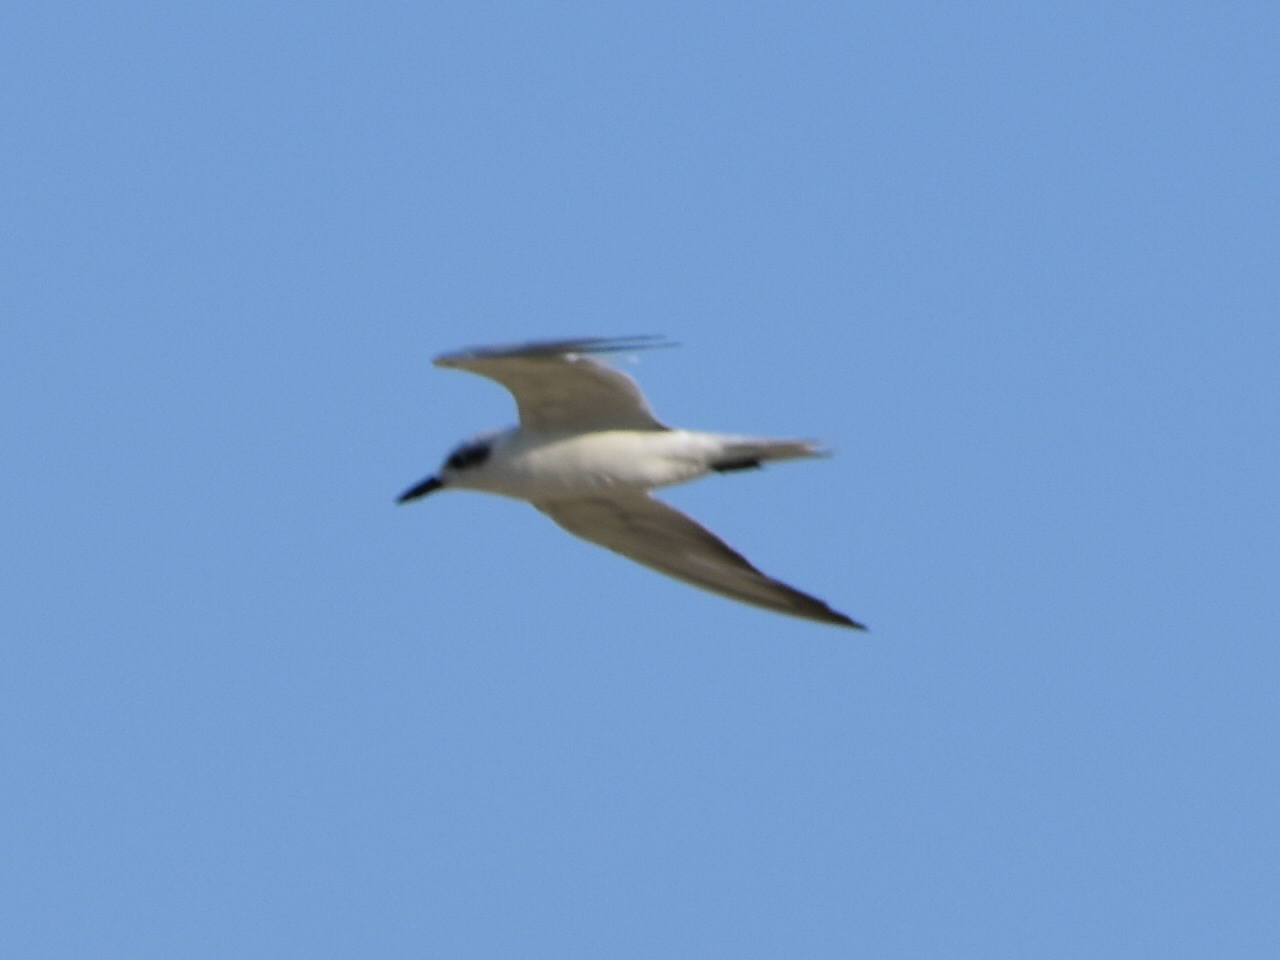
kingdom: Animalia
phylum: Chordata
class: Aves
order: Charadriiformes
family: Laridae
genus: Gelochelidon
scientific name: Gelochelidon nilotica
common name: Gull-billed tern
